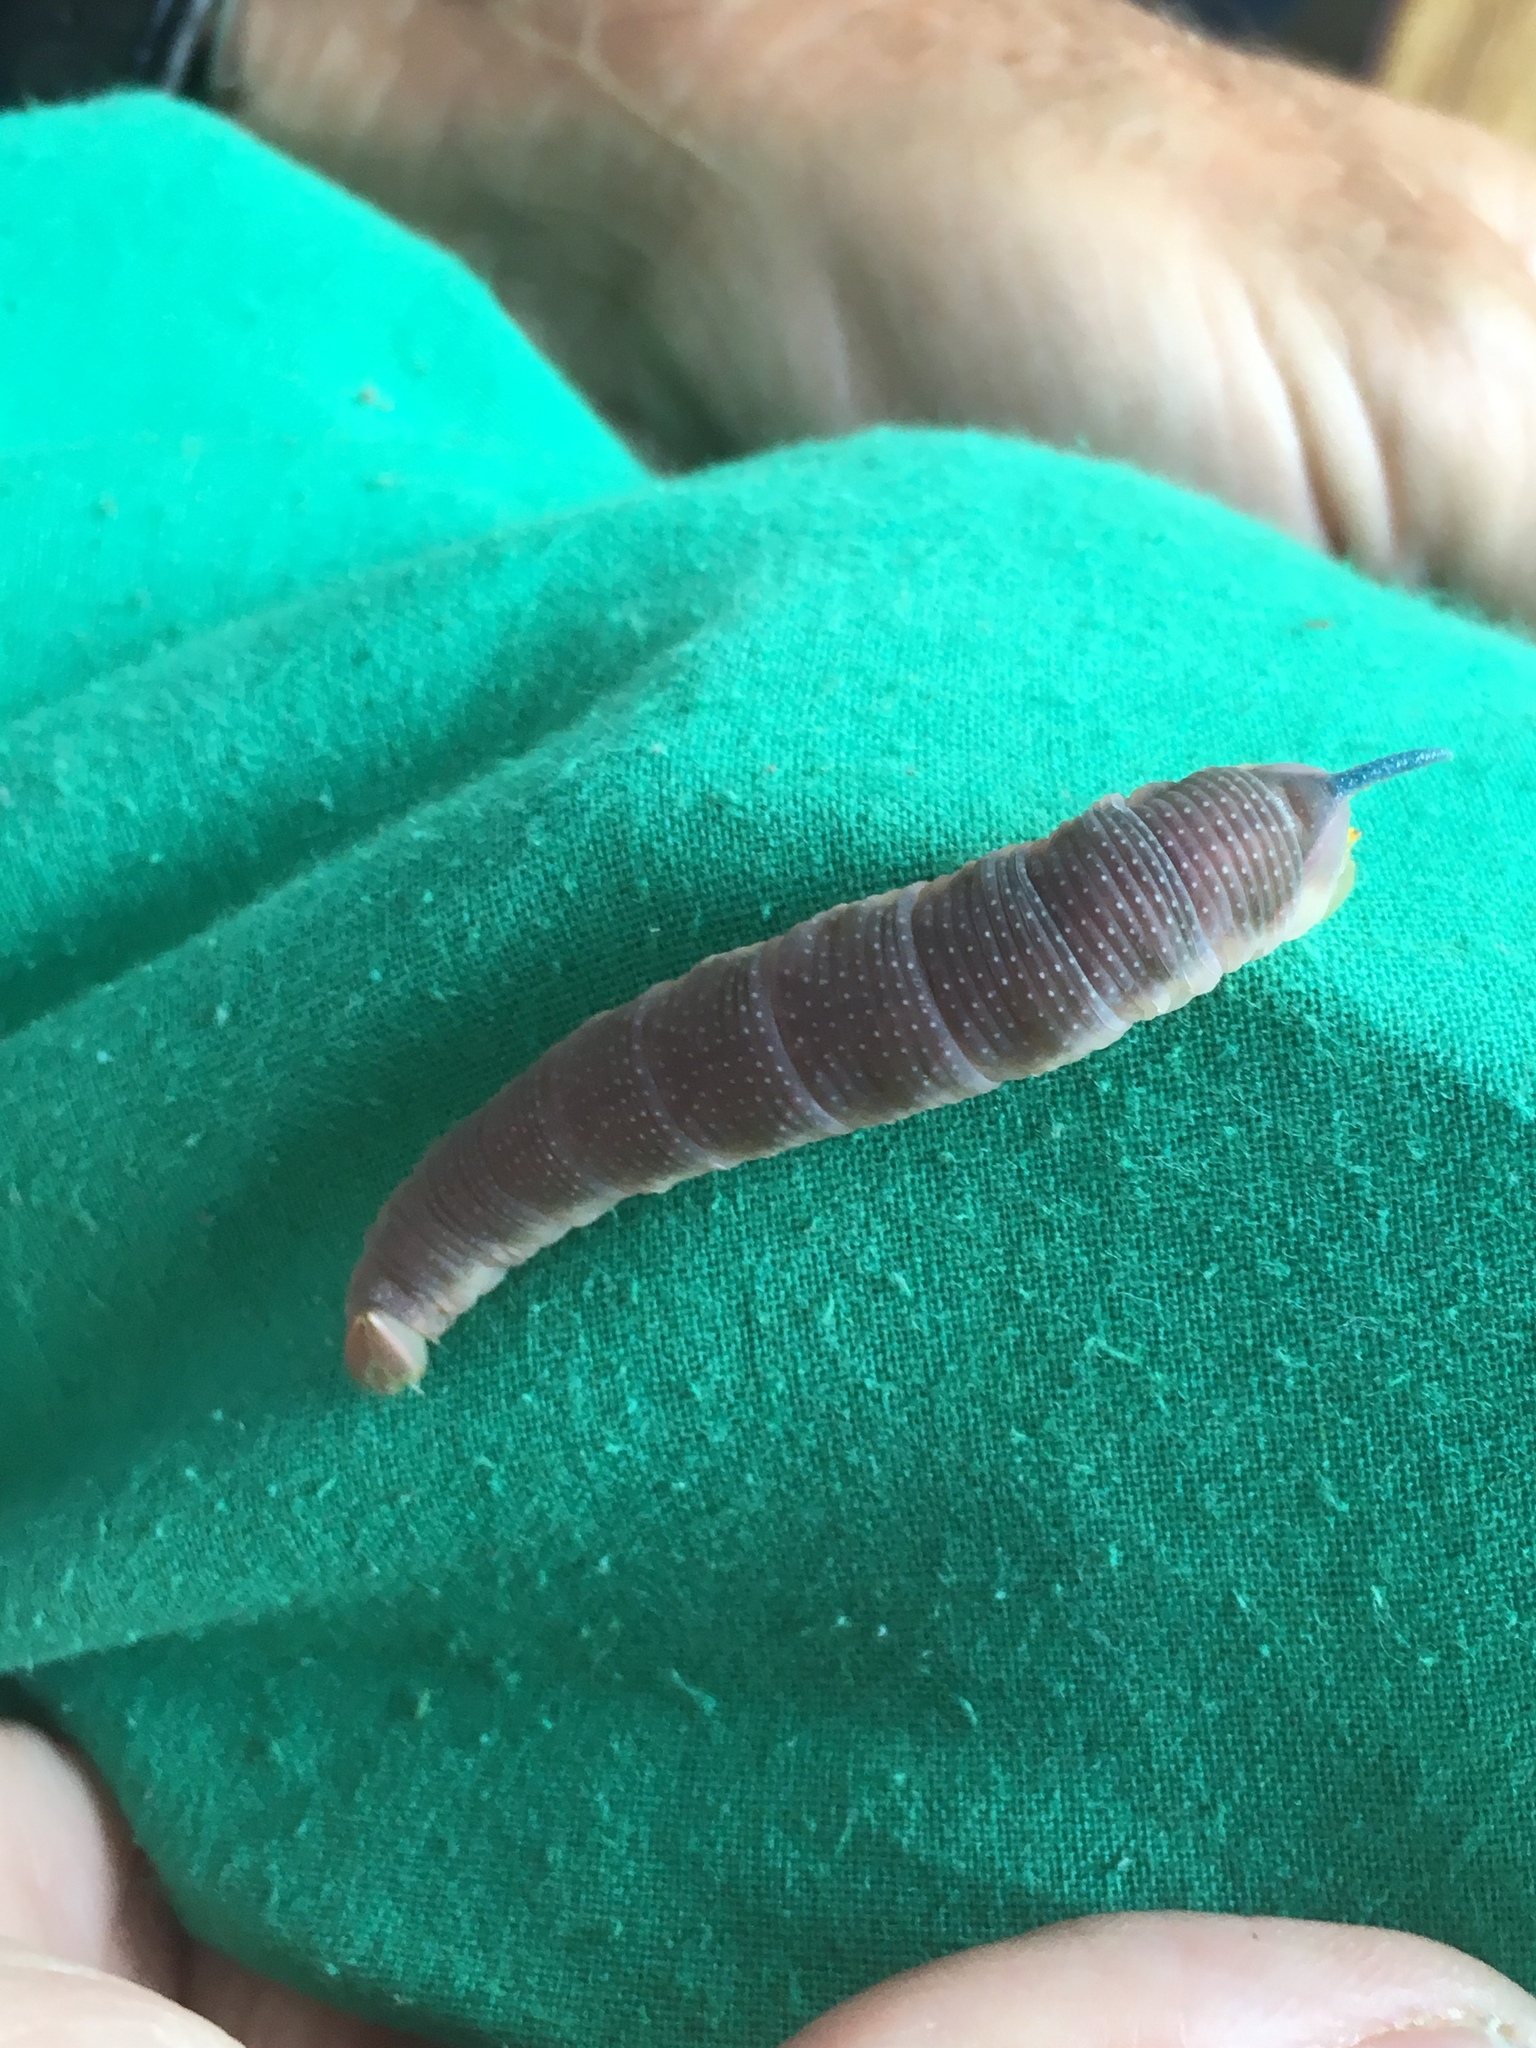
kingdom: Animalia
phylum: Arthropoda
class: Insecta
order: Lepidoptera
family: Sphingidae
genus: Mimas
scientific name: Mimas tiliae
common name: Lime hawk-moth
